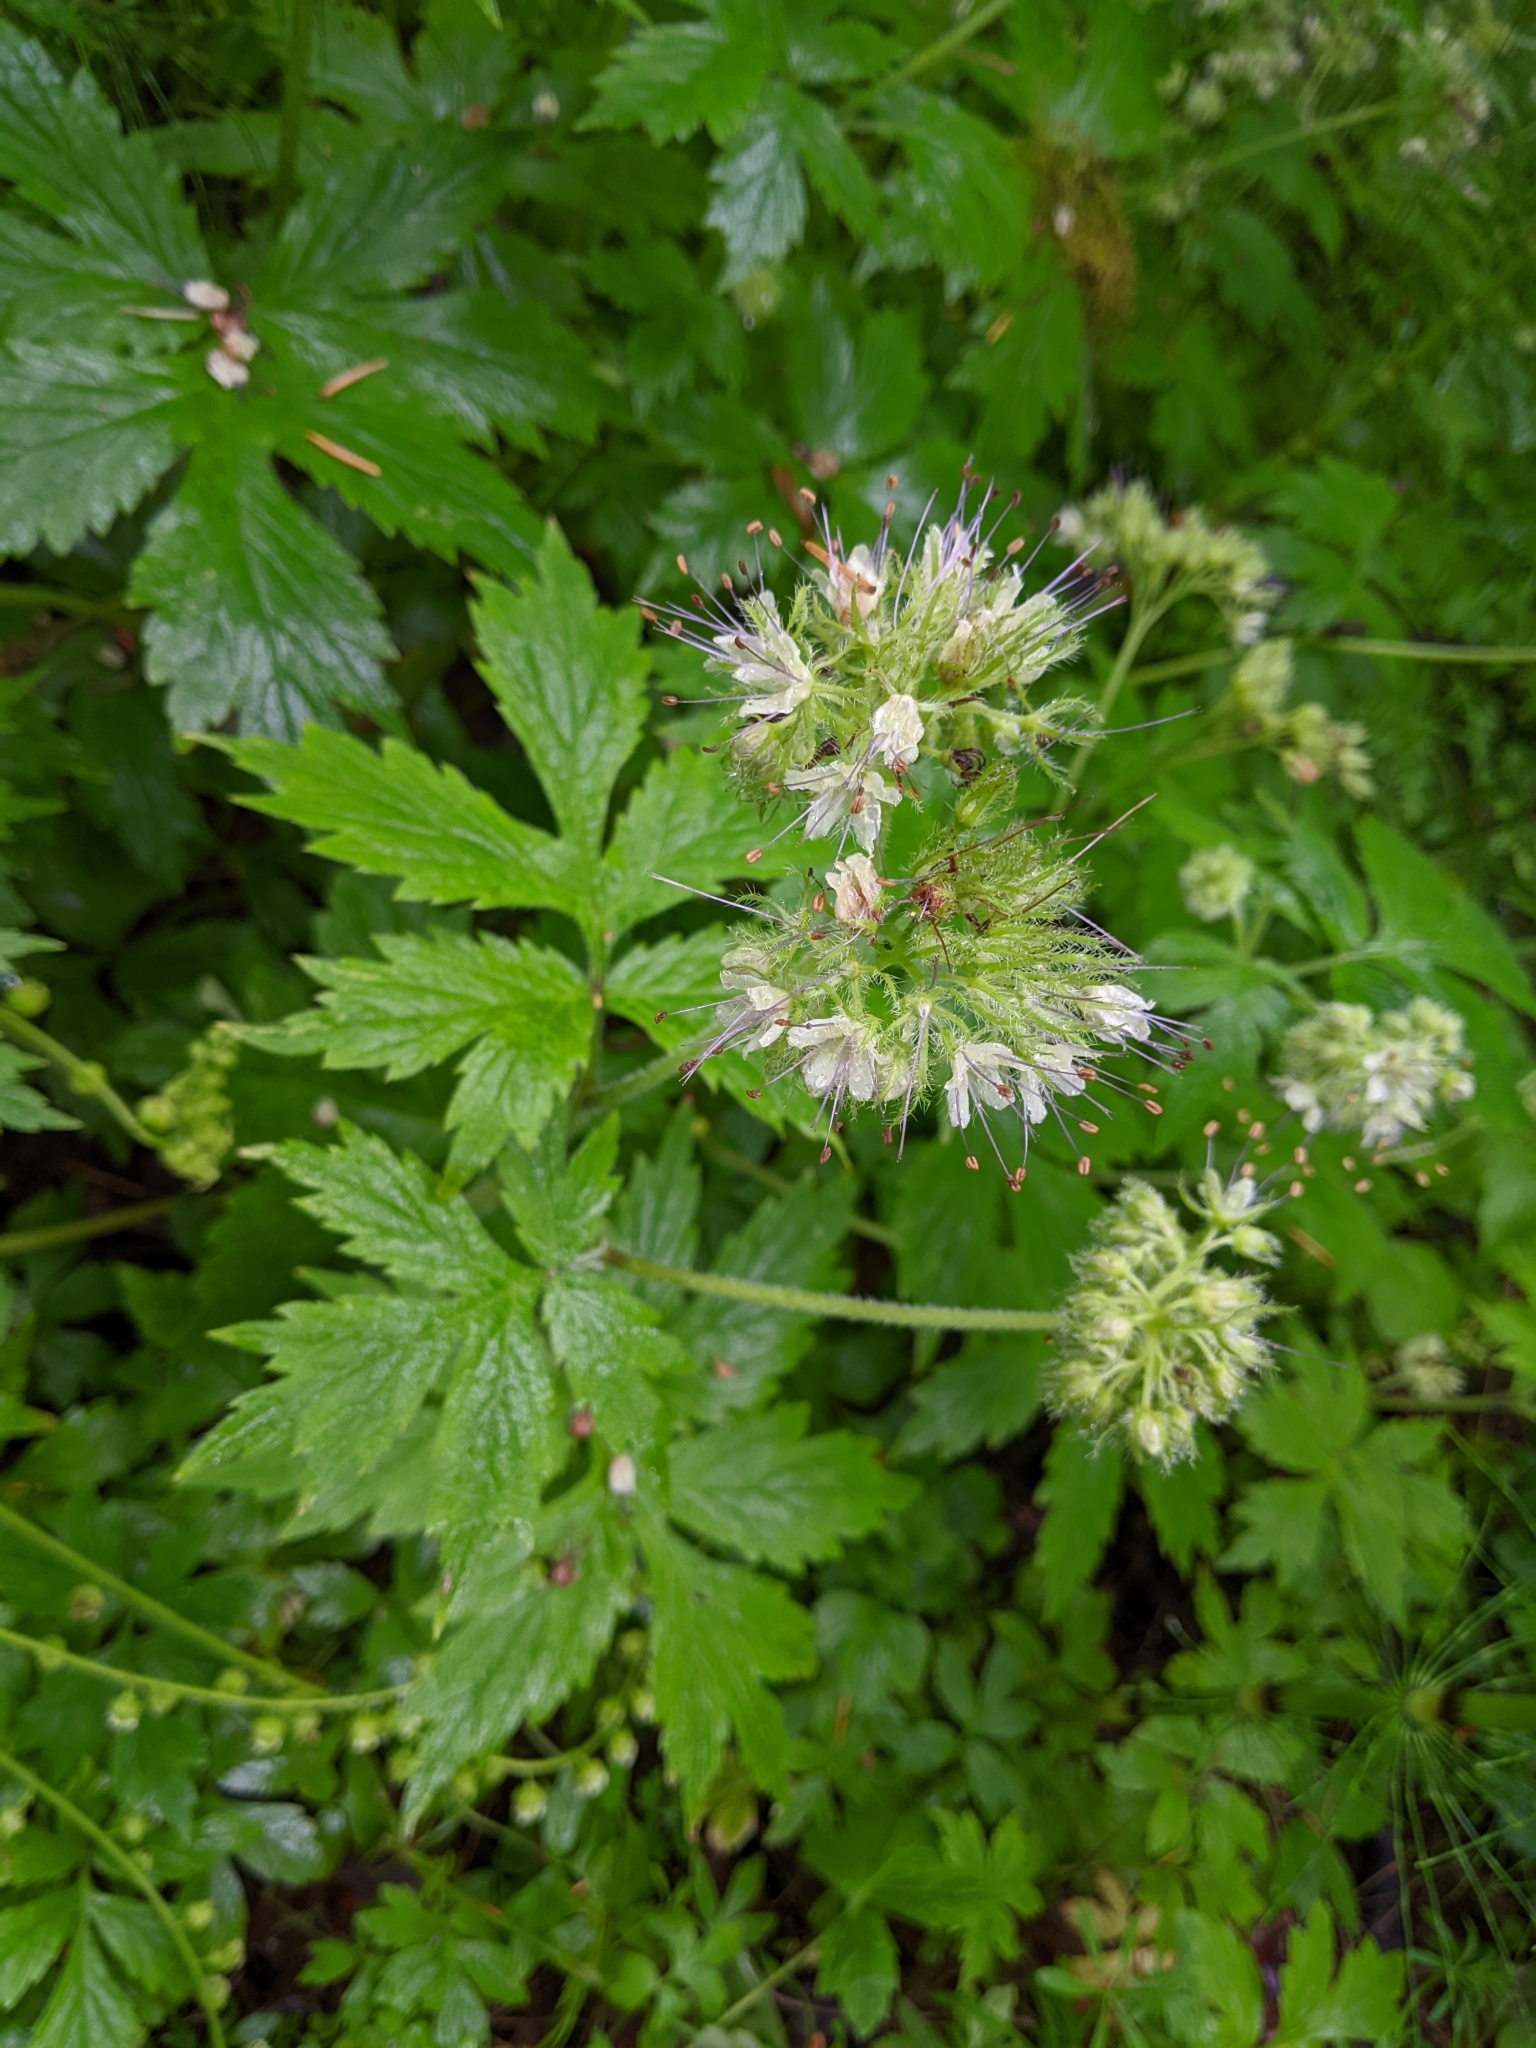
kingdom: Plantae
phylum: Tracheophyta
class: Magnoliopsida
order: Boraginales
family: Hydrophyllaceae
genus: Hydrophyllum
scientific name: Hydrophyllum tenuipes
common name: Pacific waterleaf
